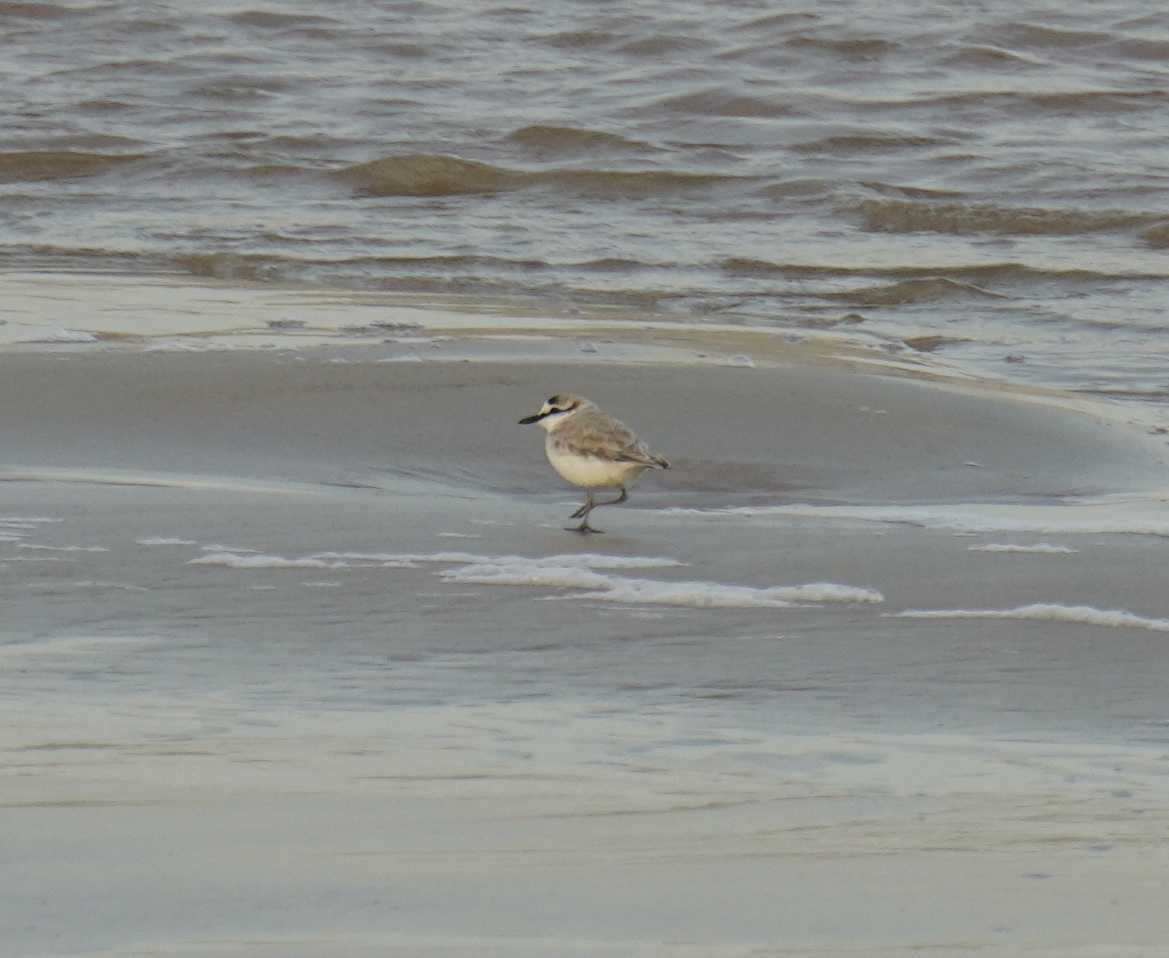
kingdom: Animalia
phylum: Chordata
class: Aves
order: Charadriiformes
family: Charadriidae
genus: Anarhynchus
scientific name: Anarhynchus
